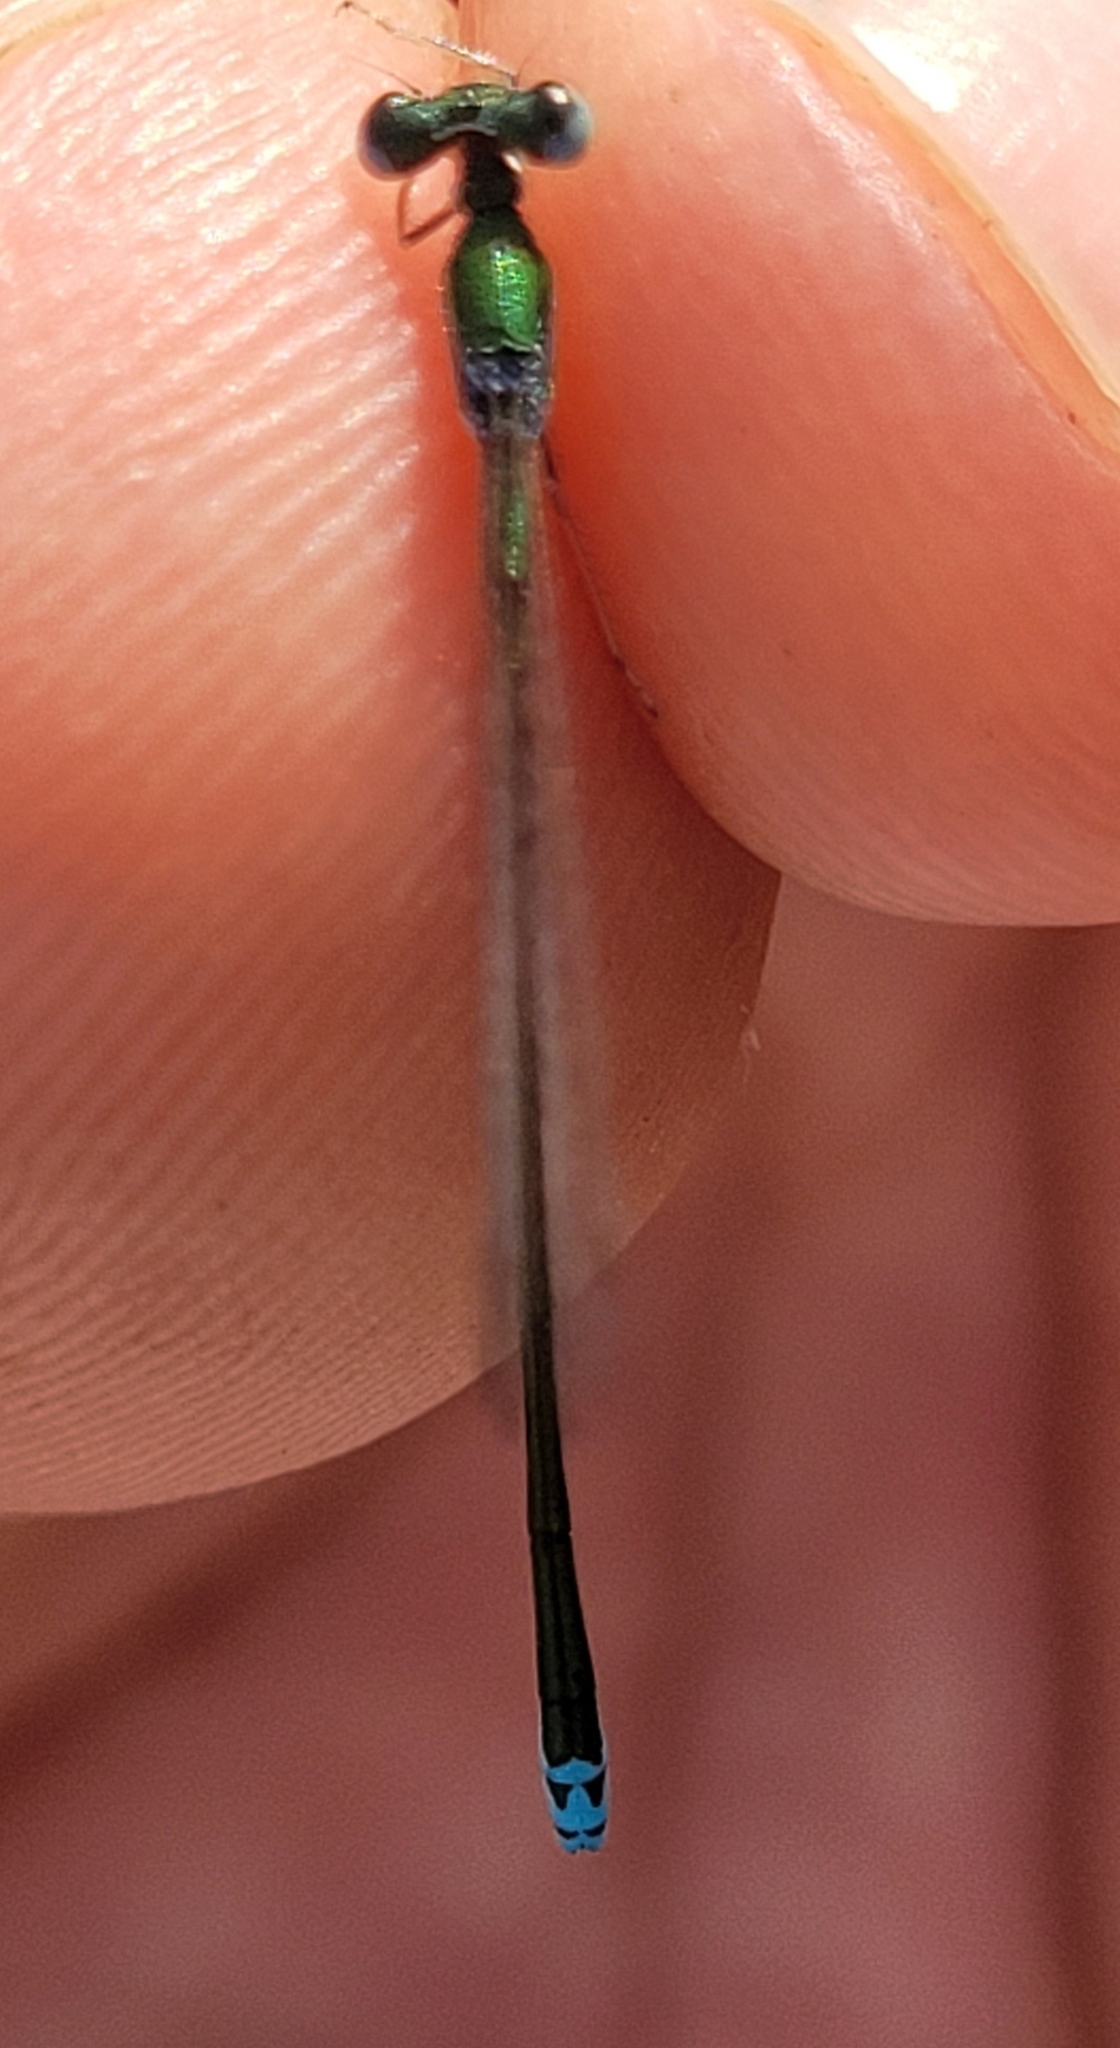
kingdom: Animalia
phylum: Arthropoda
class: Insecta
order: Odonata
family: Coenagrionidae
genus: Nehalennia
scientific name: Nehalennia irene
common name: Sedge sprite
